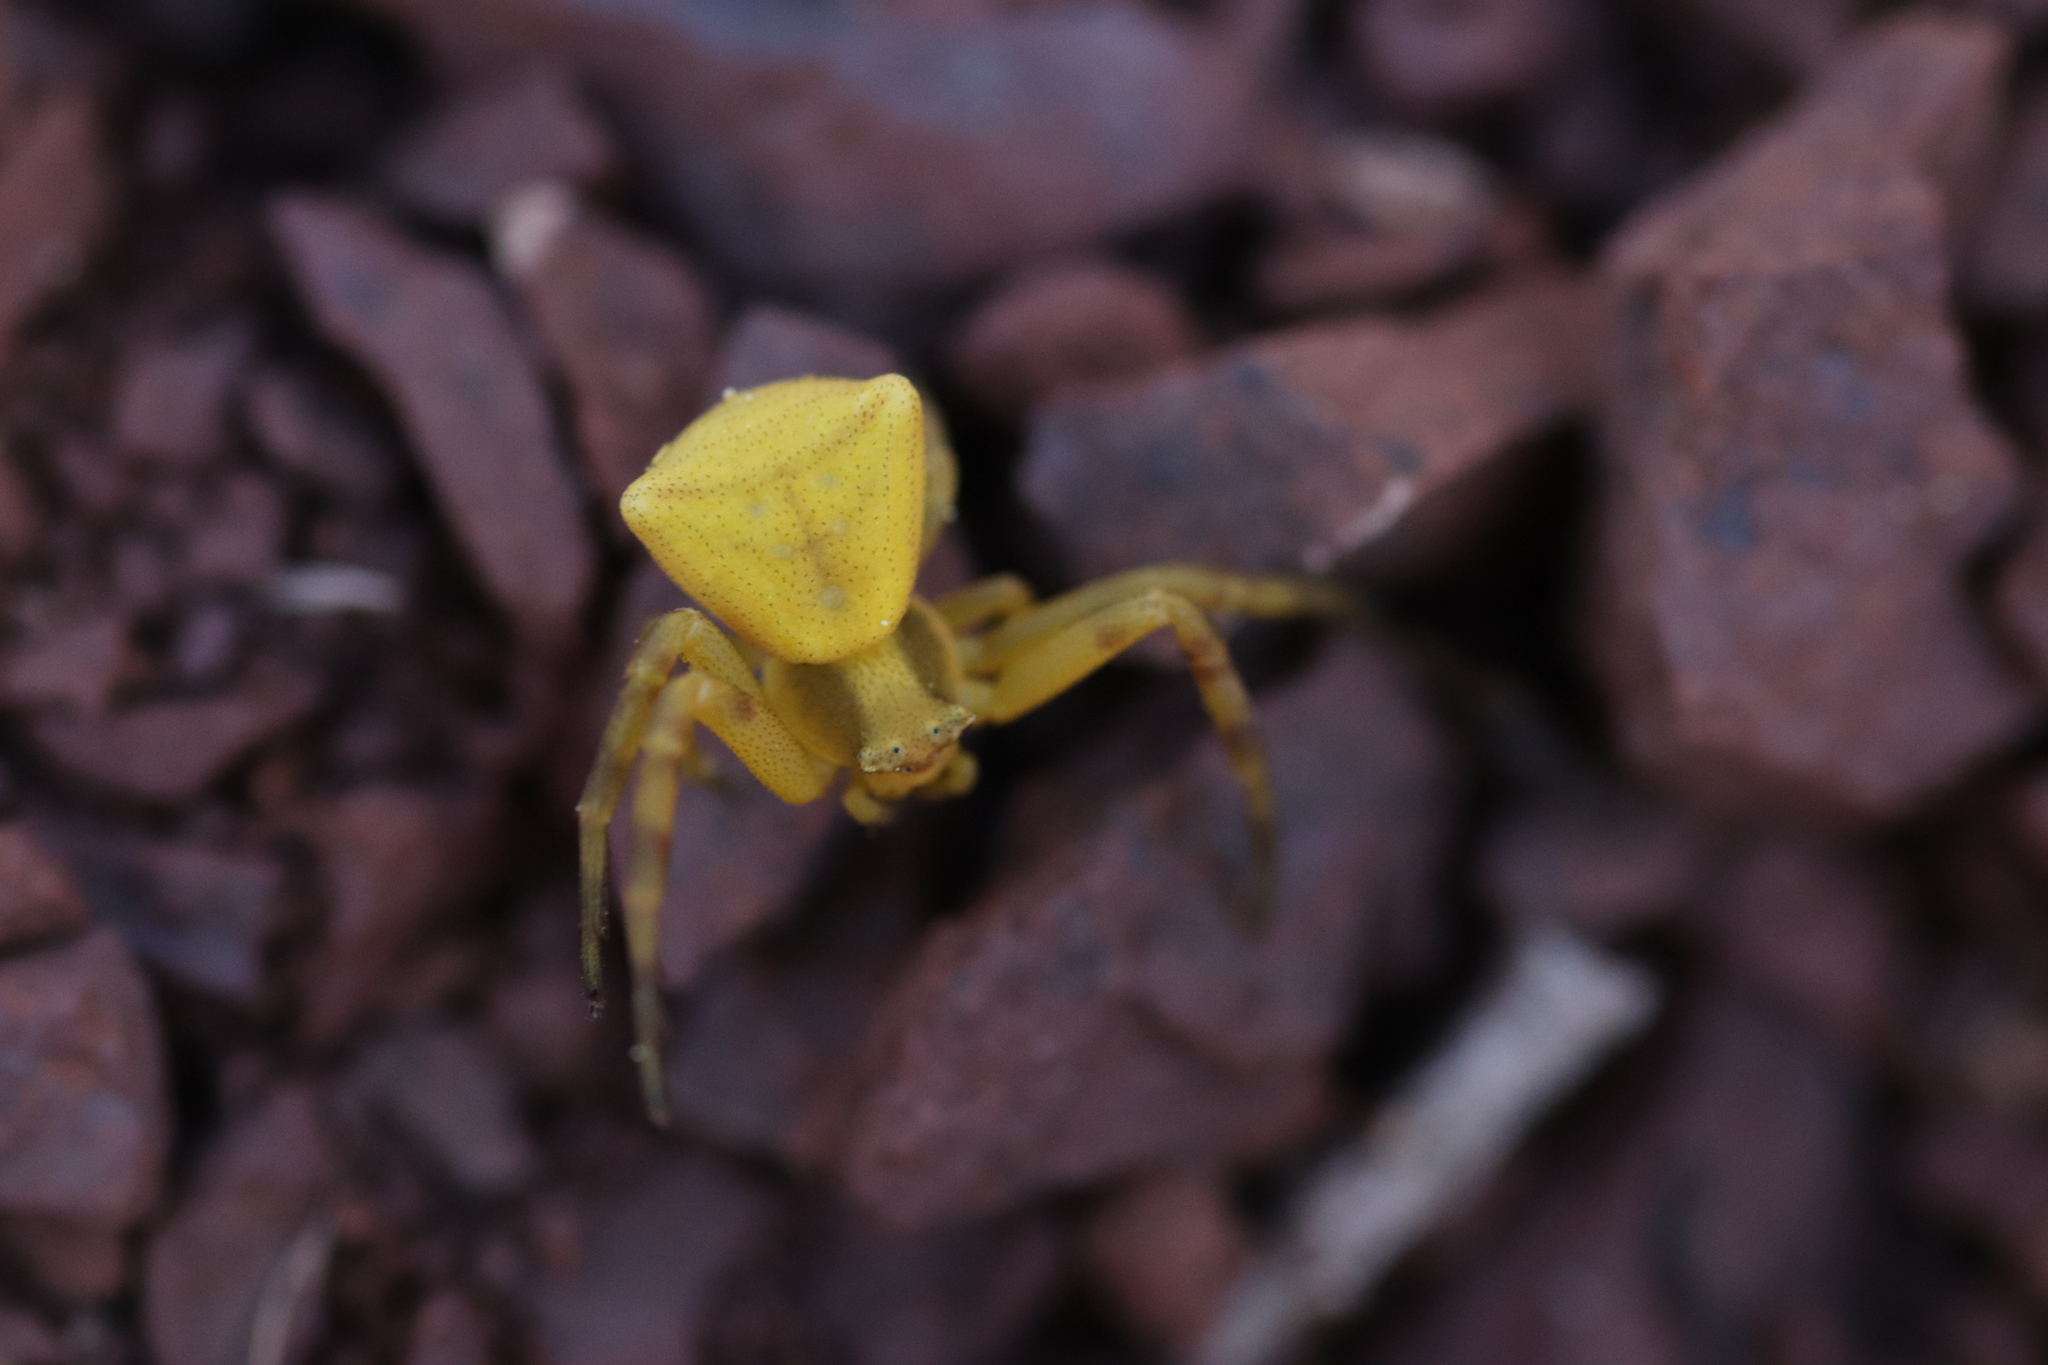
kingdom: Animalia
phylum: Arthropoda
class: Arachnida
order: Araneae
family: Thomisidae
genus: Thomisus
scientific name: Thomisus onustus
